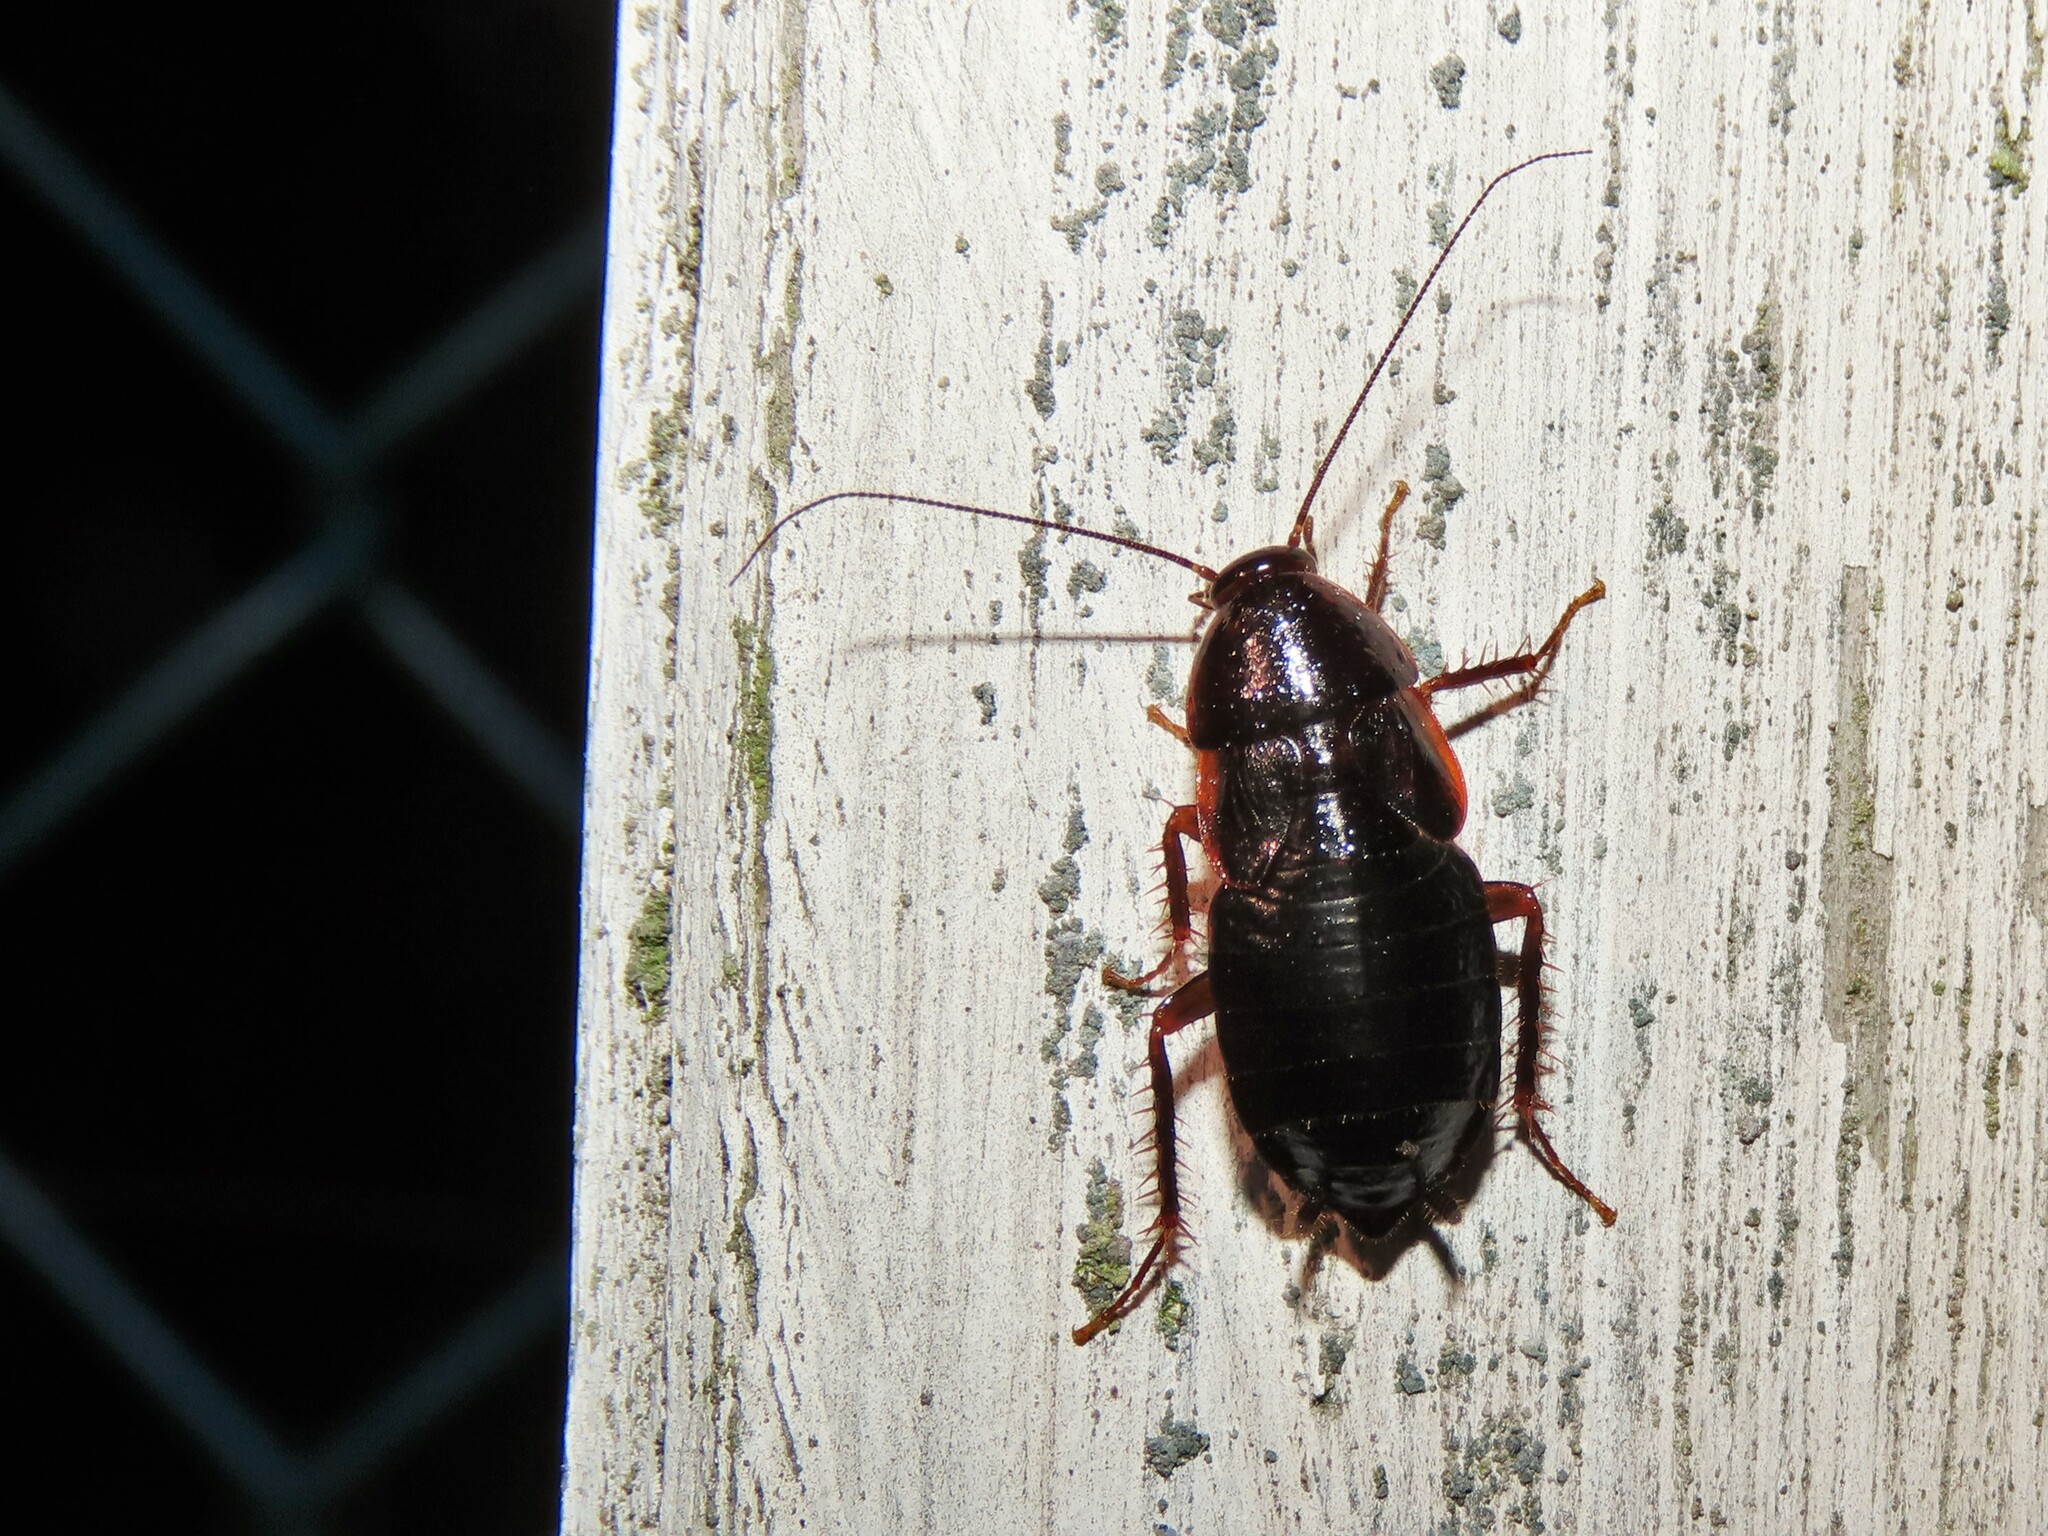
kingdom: Animalia
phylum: Arthropoda
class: Insecta
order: Blattodea
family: Ectobiidae
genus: Parcoblatta
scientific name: Parcoblatta uhleriana
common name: Uhler's wood cockroach
